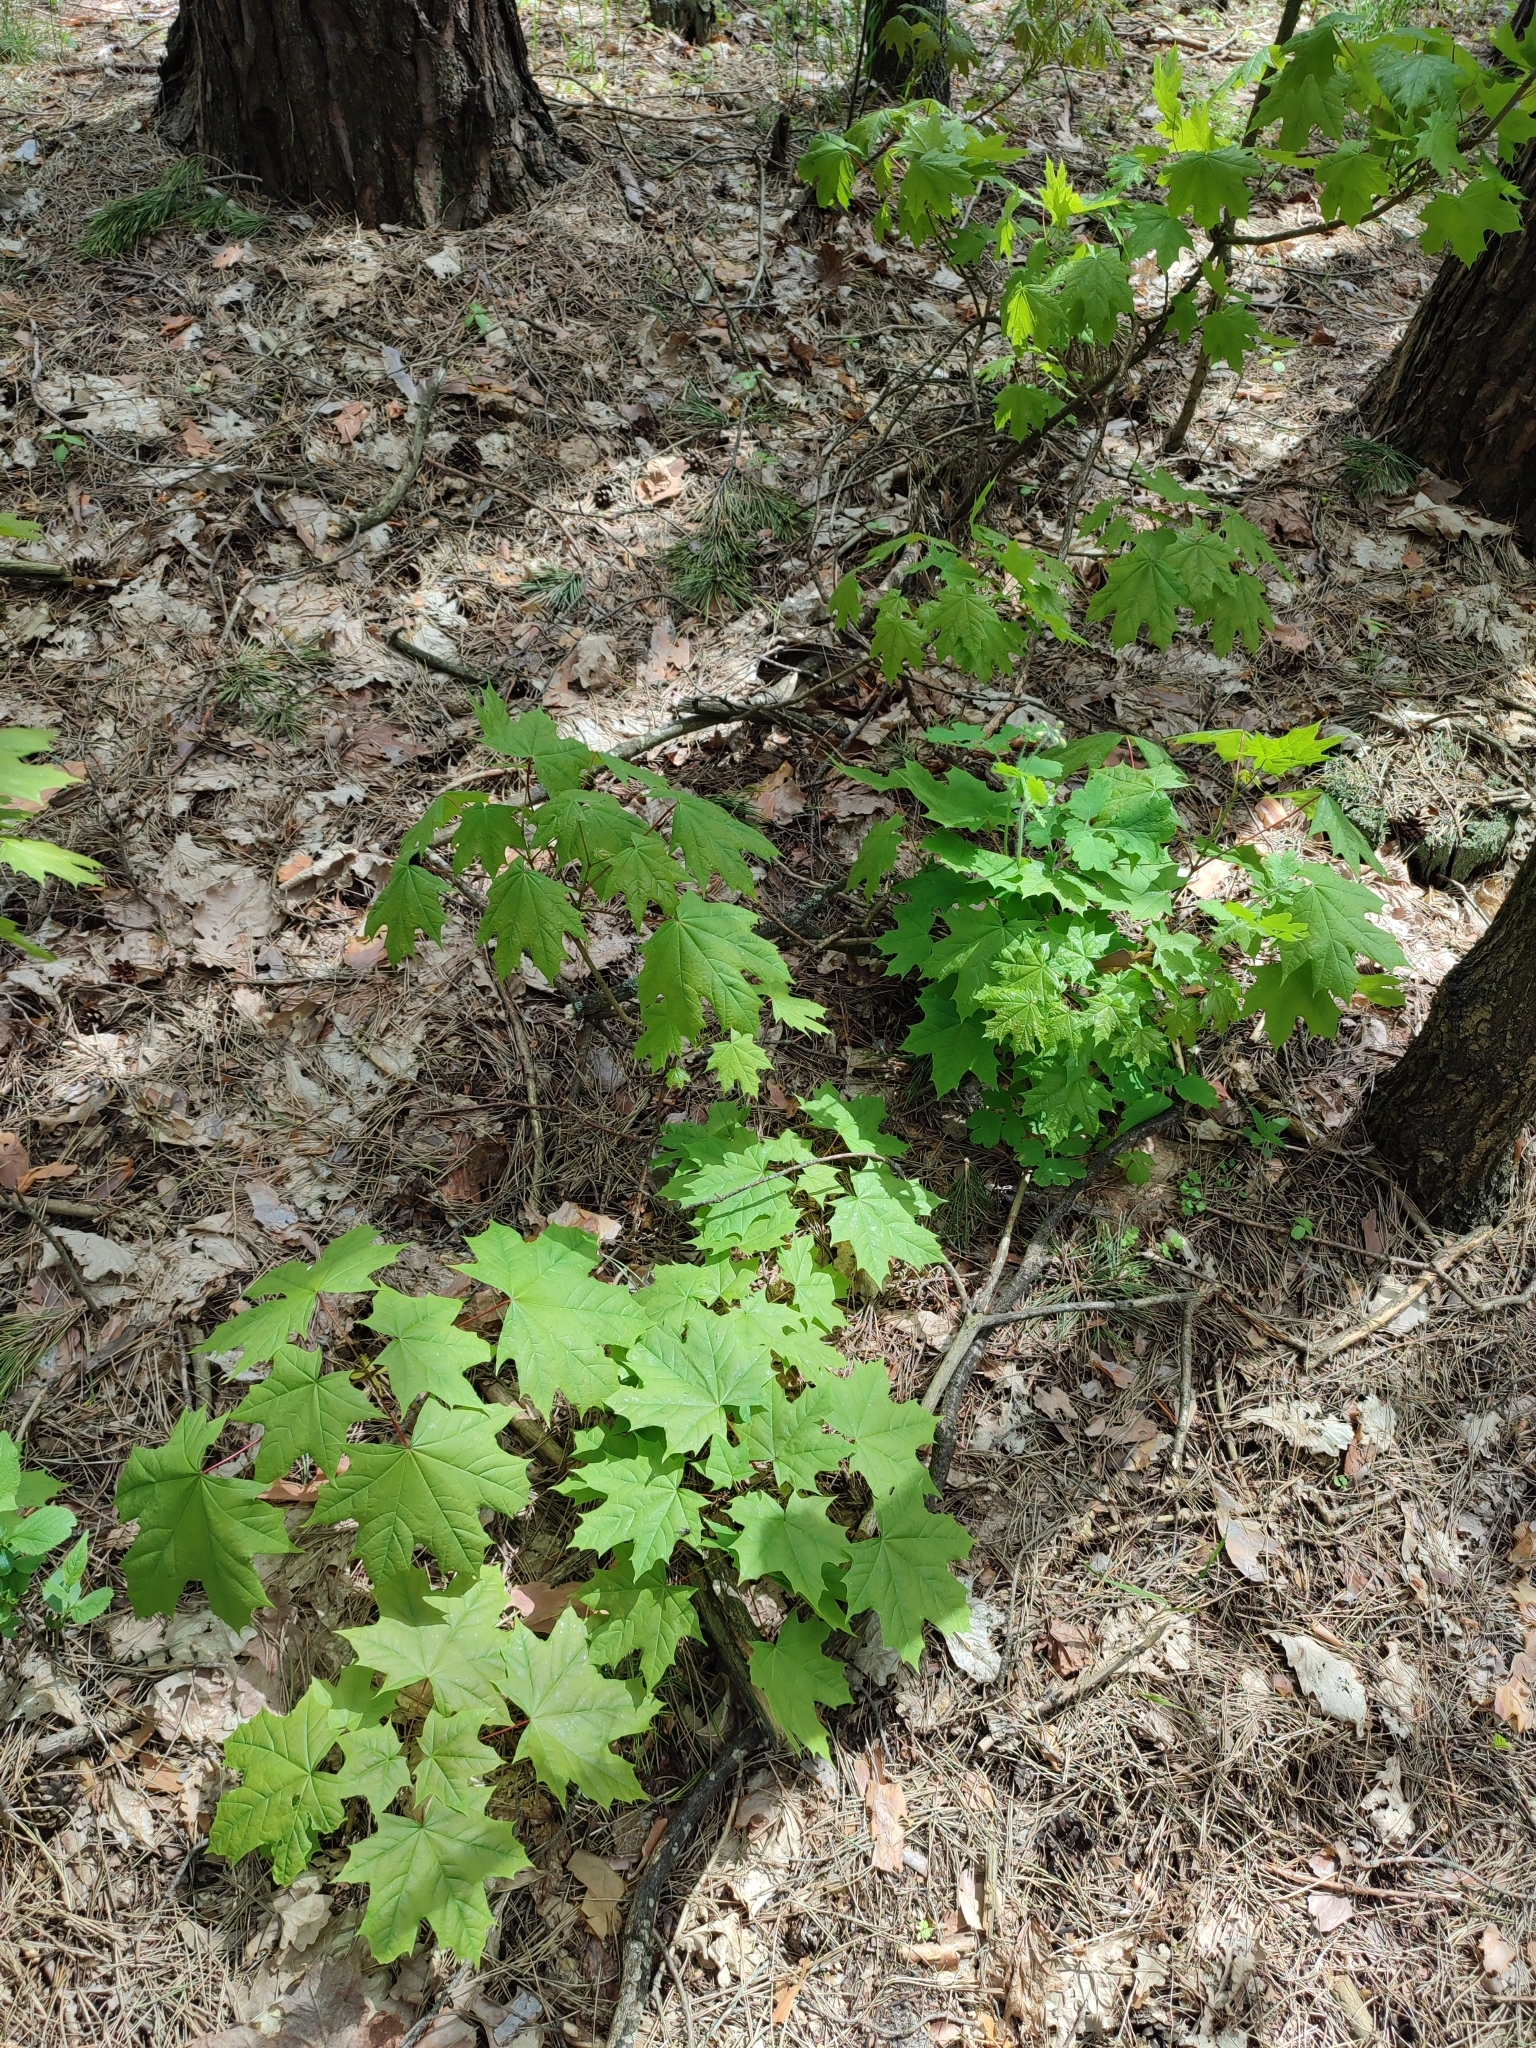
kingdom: Plantae
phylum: Tracheophyta
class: Magnoliopsida
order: Sapindales
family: Sapindaceae
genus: Acer
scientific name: Acer platanoides
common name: Norway maple
